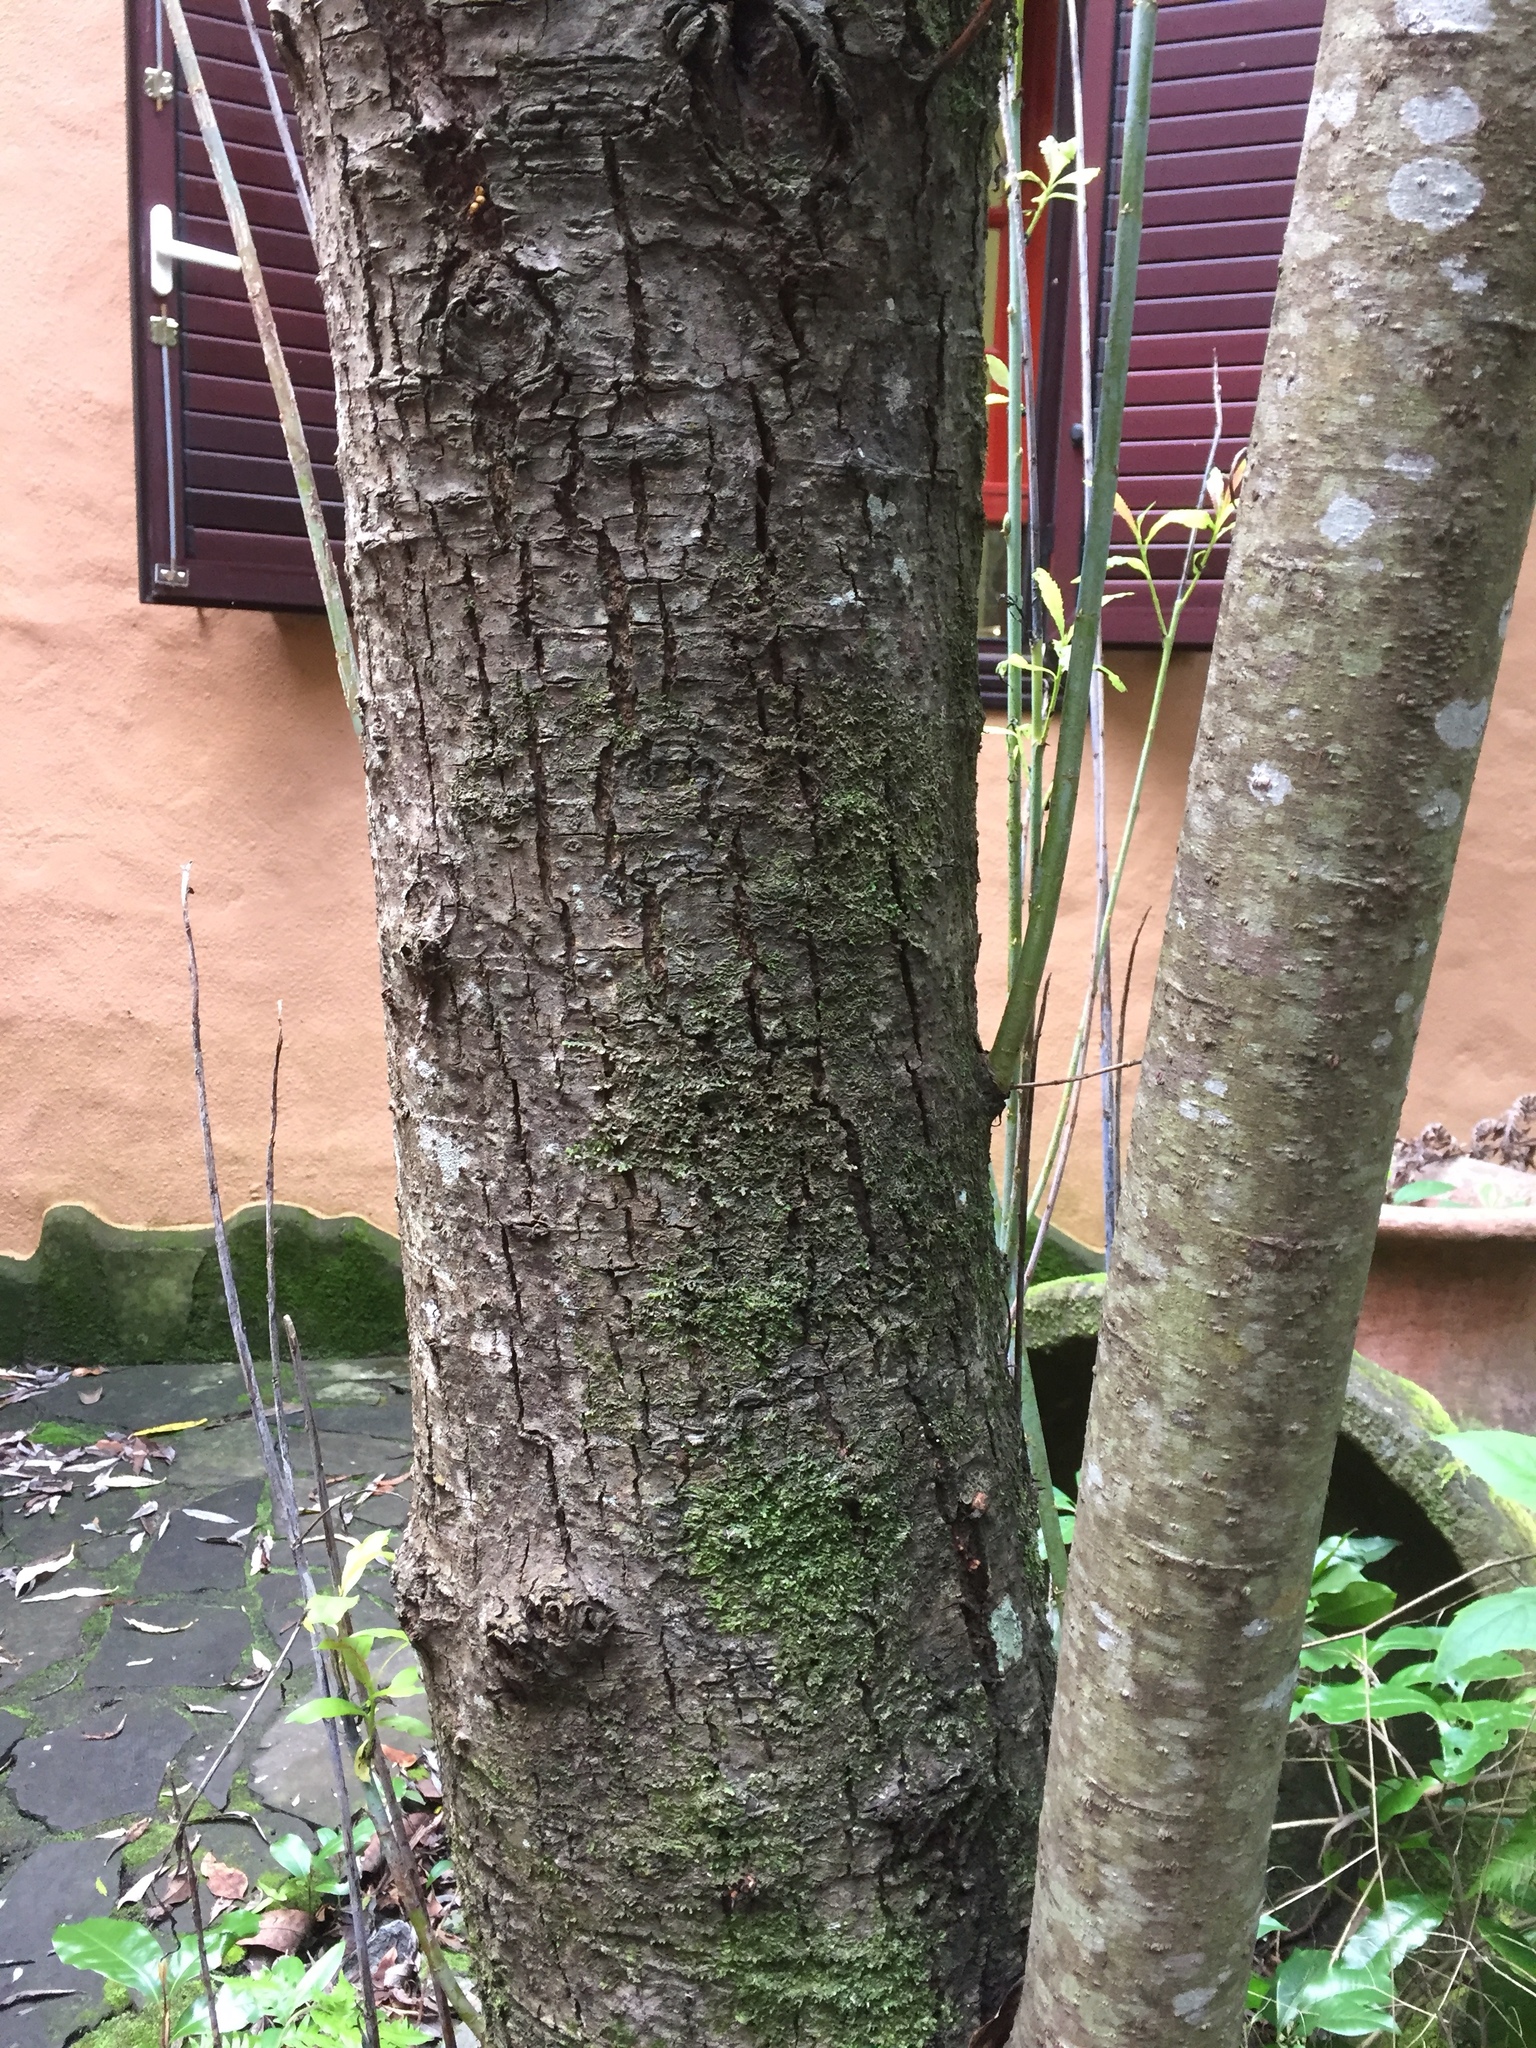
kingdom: Plantae
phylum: Tracheophyta
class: Magnoliopsida
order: Malpighiales
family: Salicaceae
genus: Salix
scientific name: Salix canariensis
